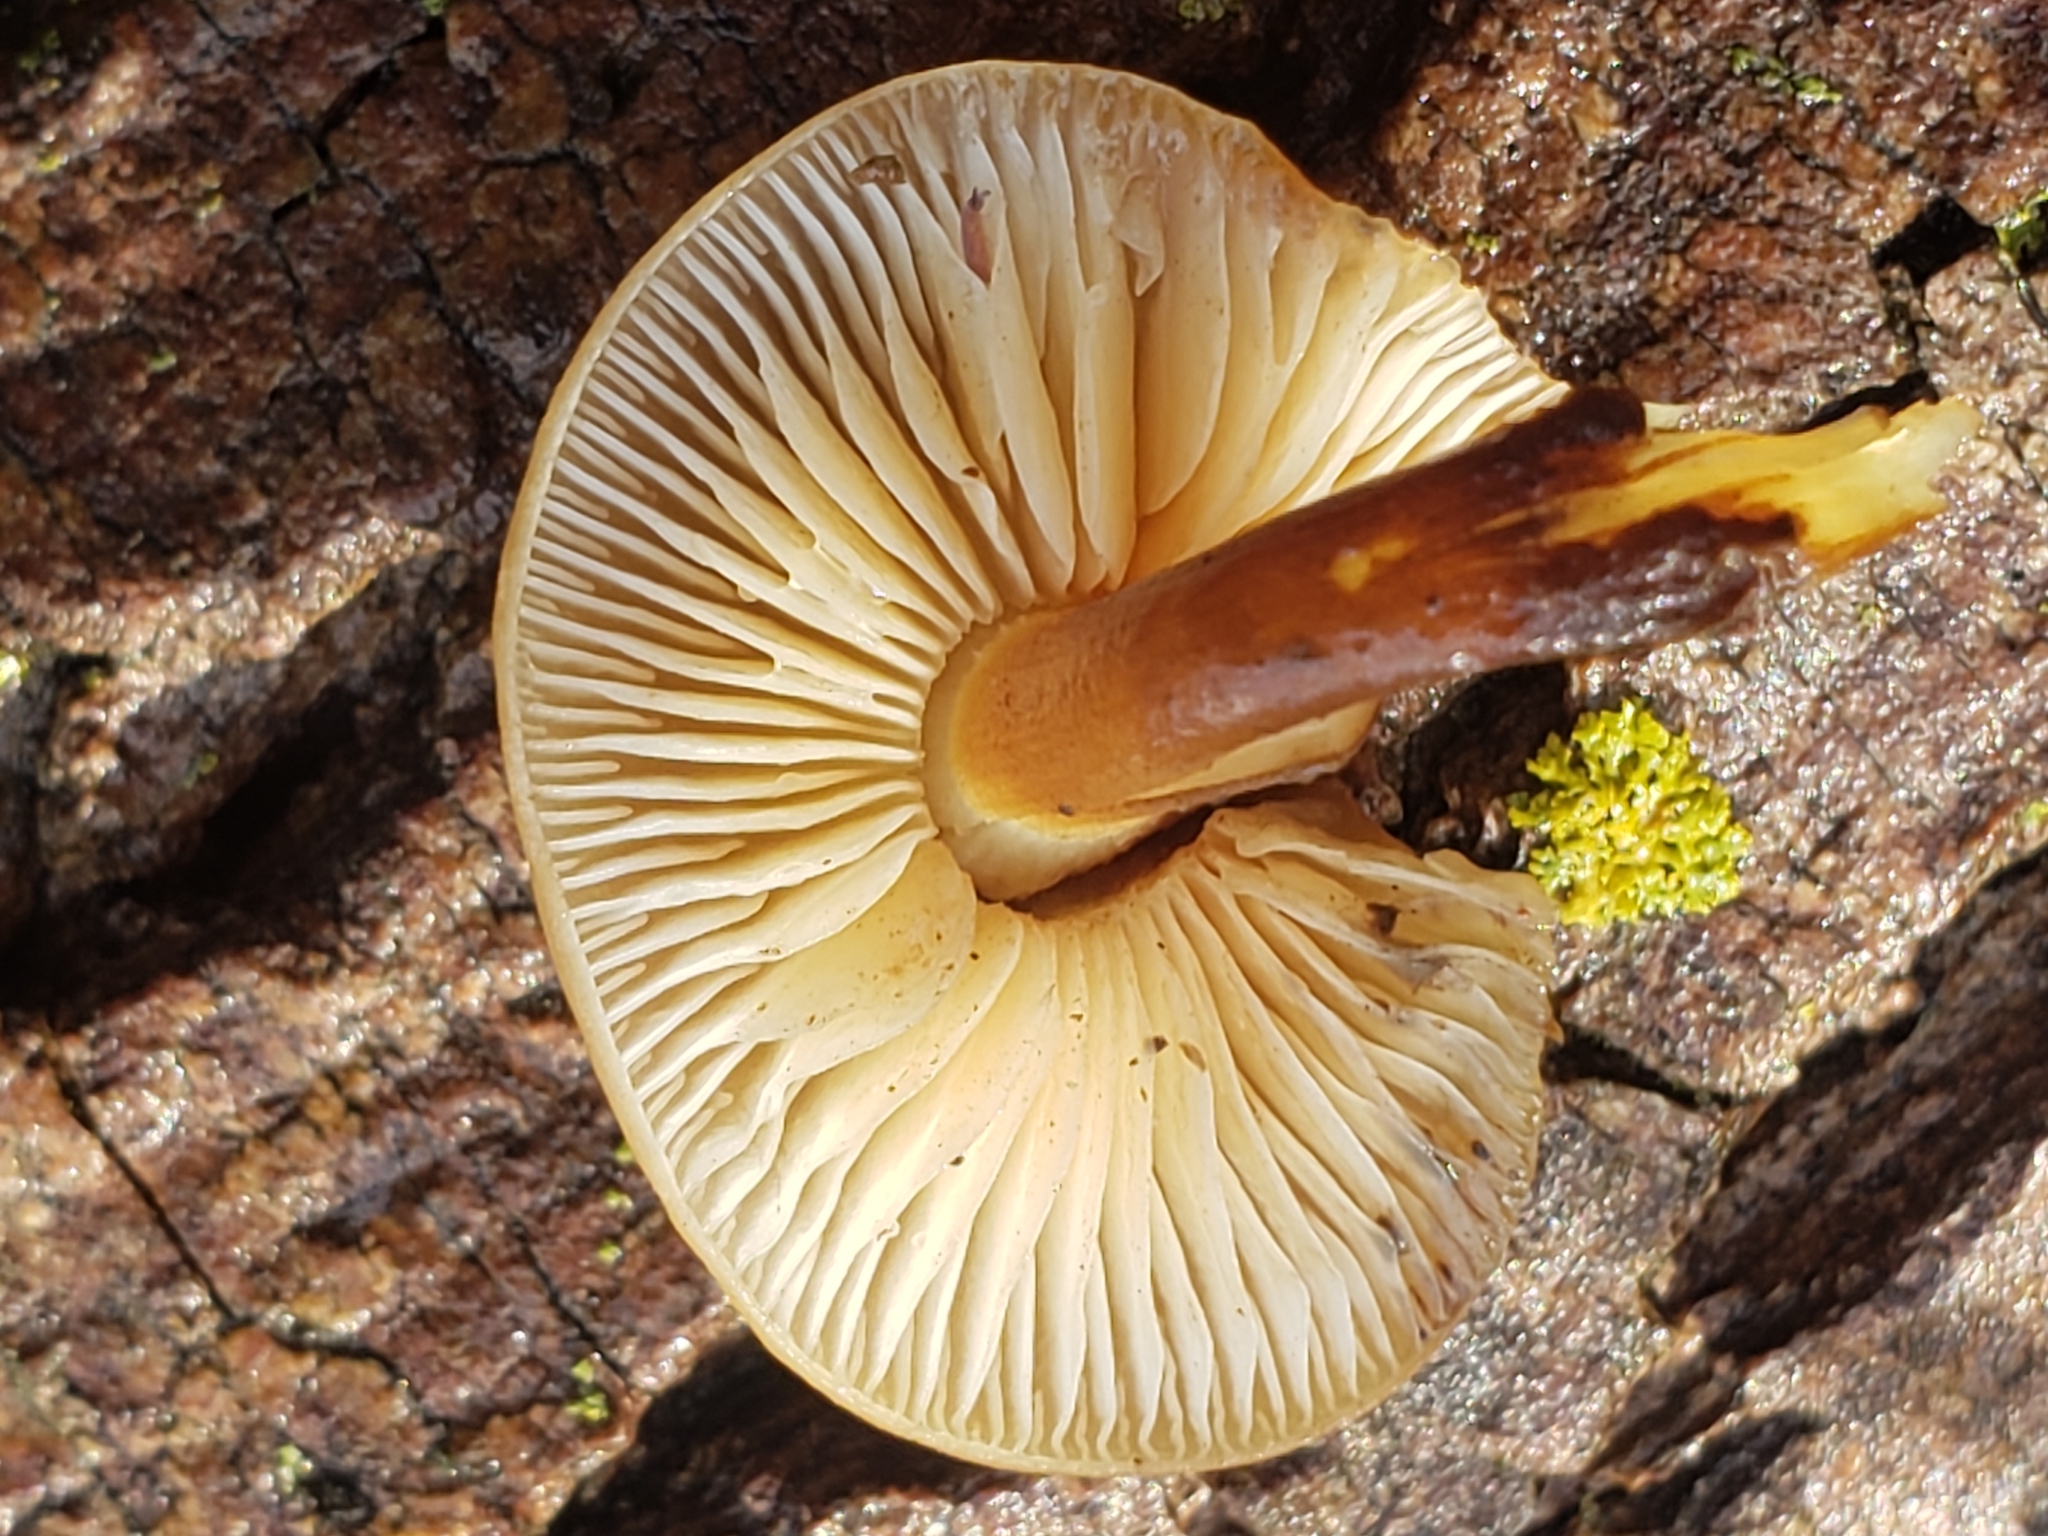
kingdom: Fungi
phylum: Basidiomycota
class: Agaricomycetes
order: Agaricales
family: Physalacriaceae
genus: Flammulina
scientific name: Flammulina velutipes
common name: Velvet shank
